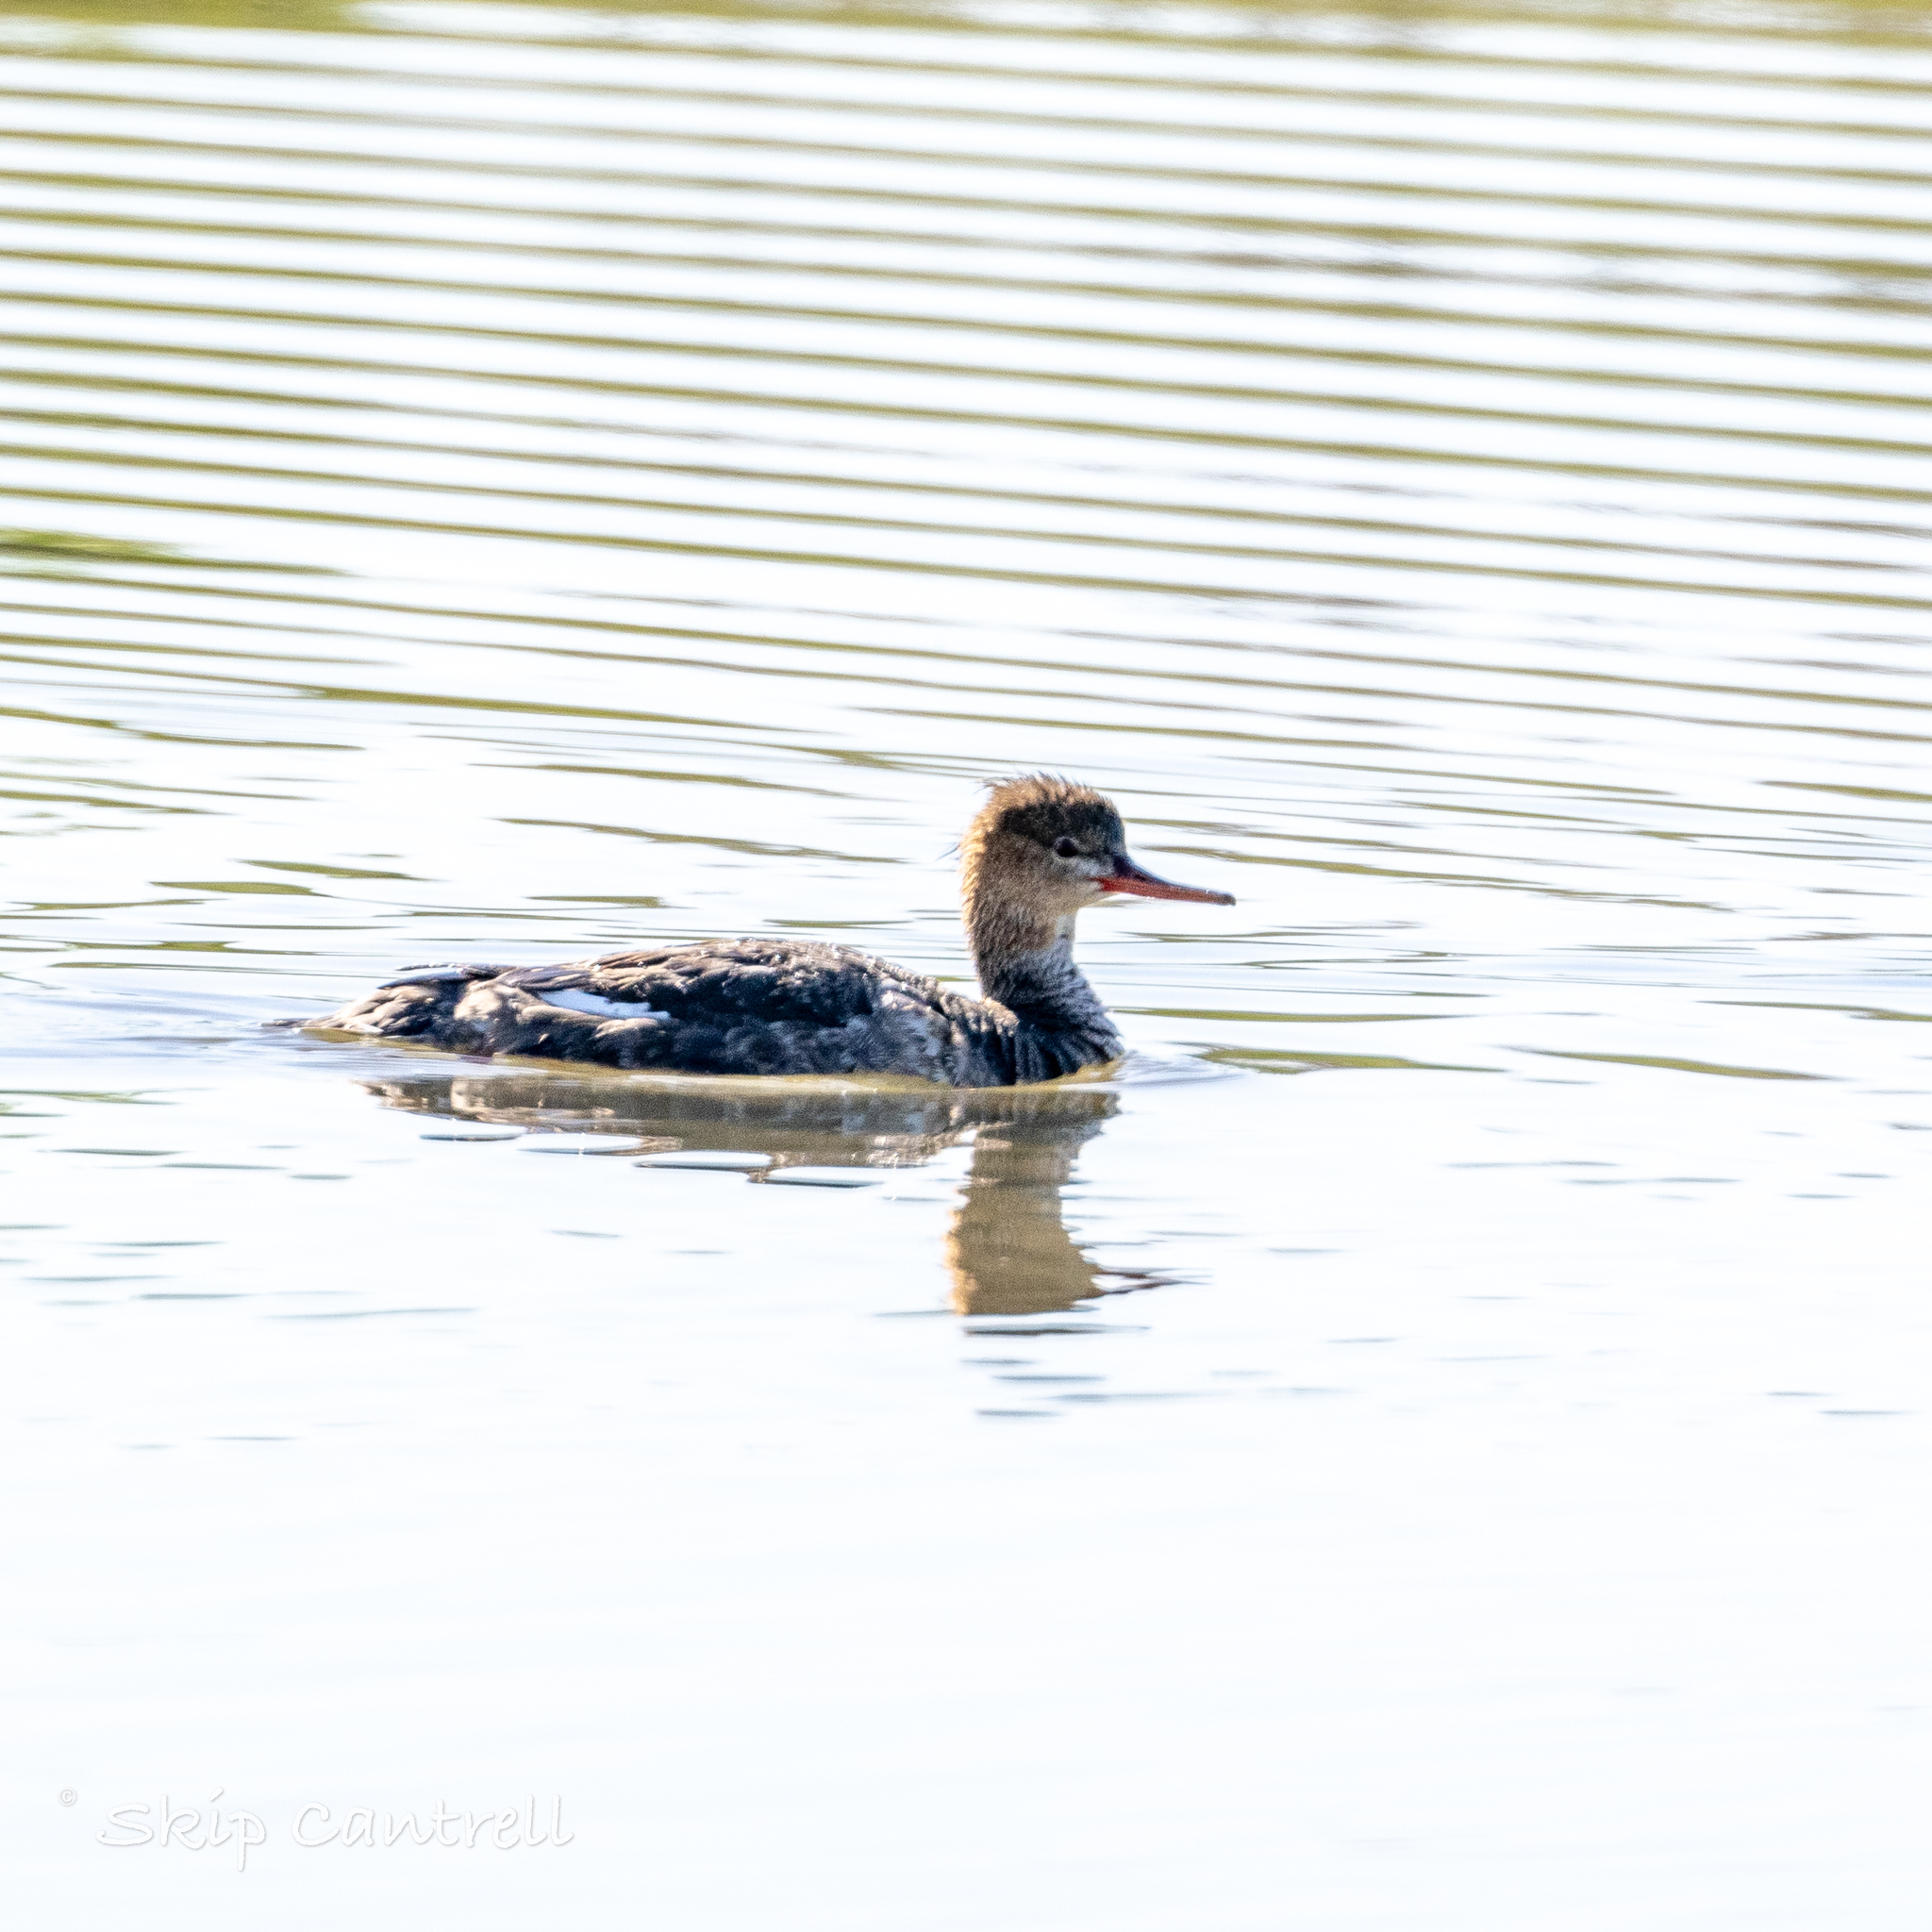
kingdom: Animalia
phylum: Chordata
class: Aves
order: Anseriformes
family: Anatidae
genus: Mergus
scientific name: Mergus serrator
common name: Red-breasted merganser
